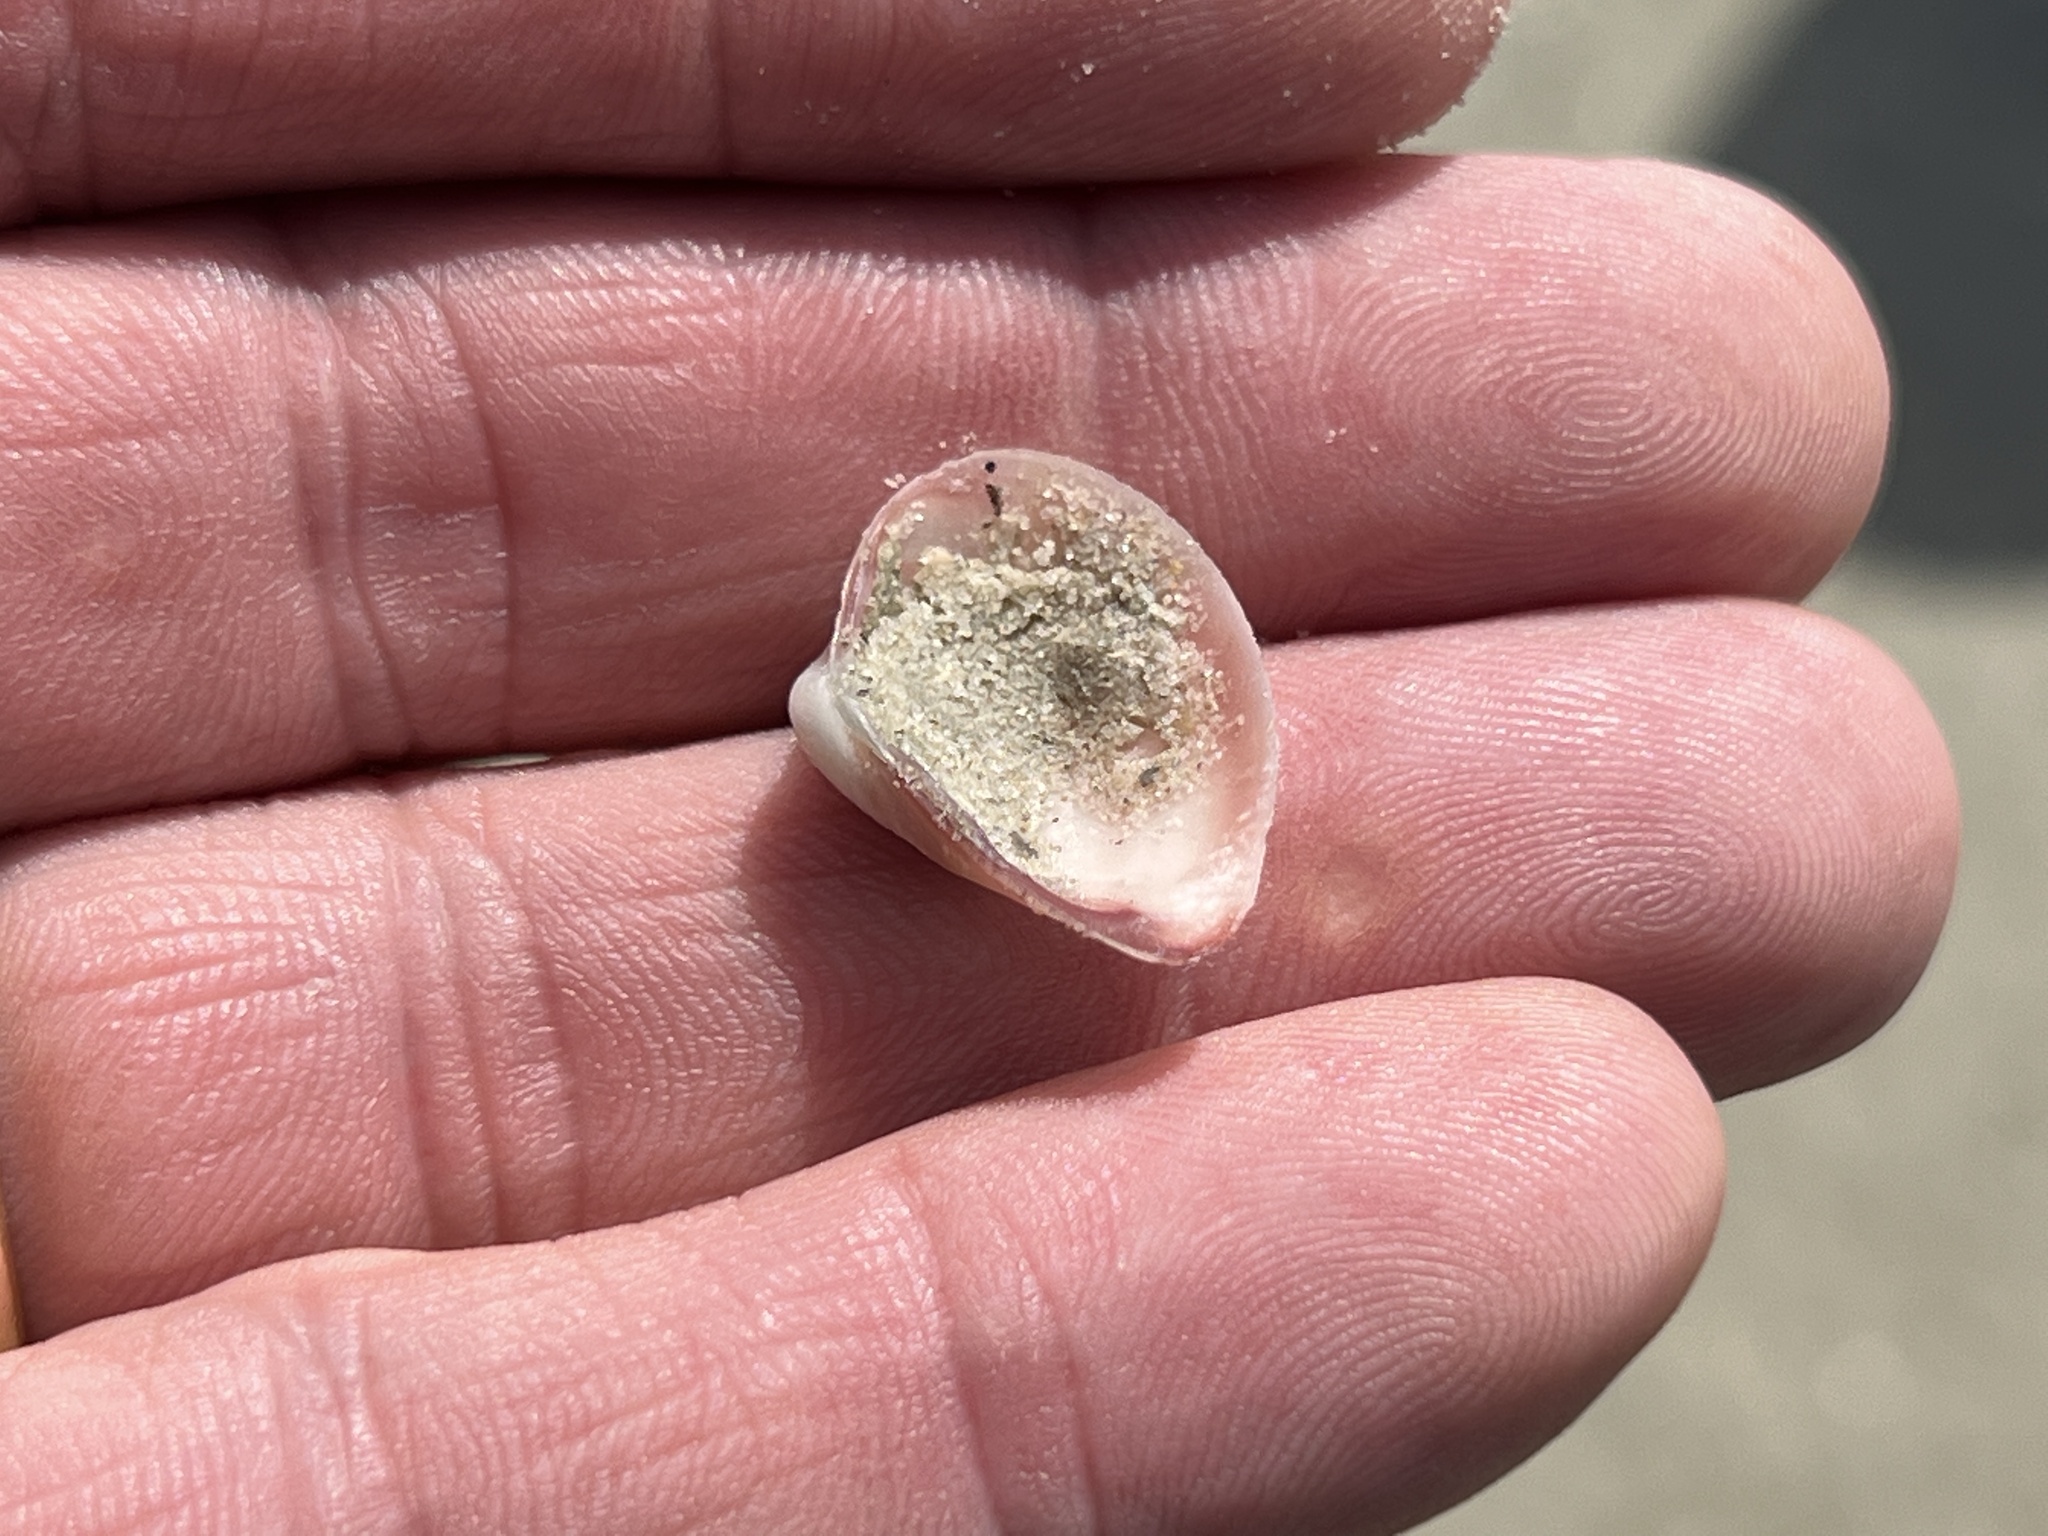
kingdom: Animalia
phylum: Mollusca
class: Bivalvia
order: Venerida
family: Mactridae
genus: Mulinia
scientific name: Mulinia lateralis
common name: Dwarf surfclam
